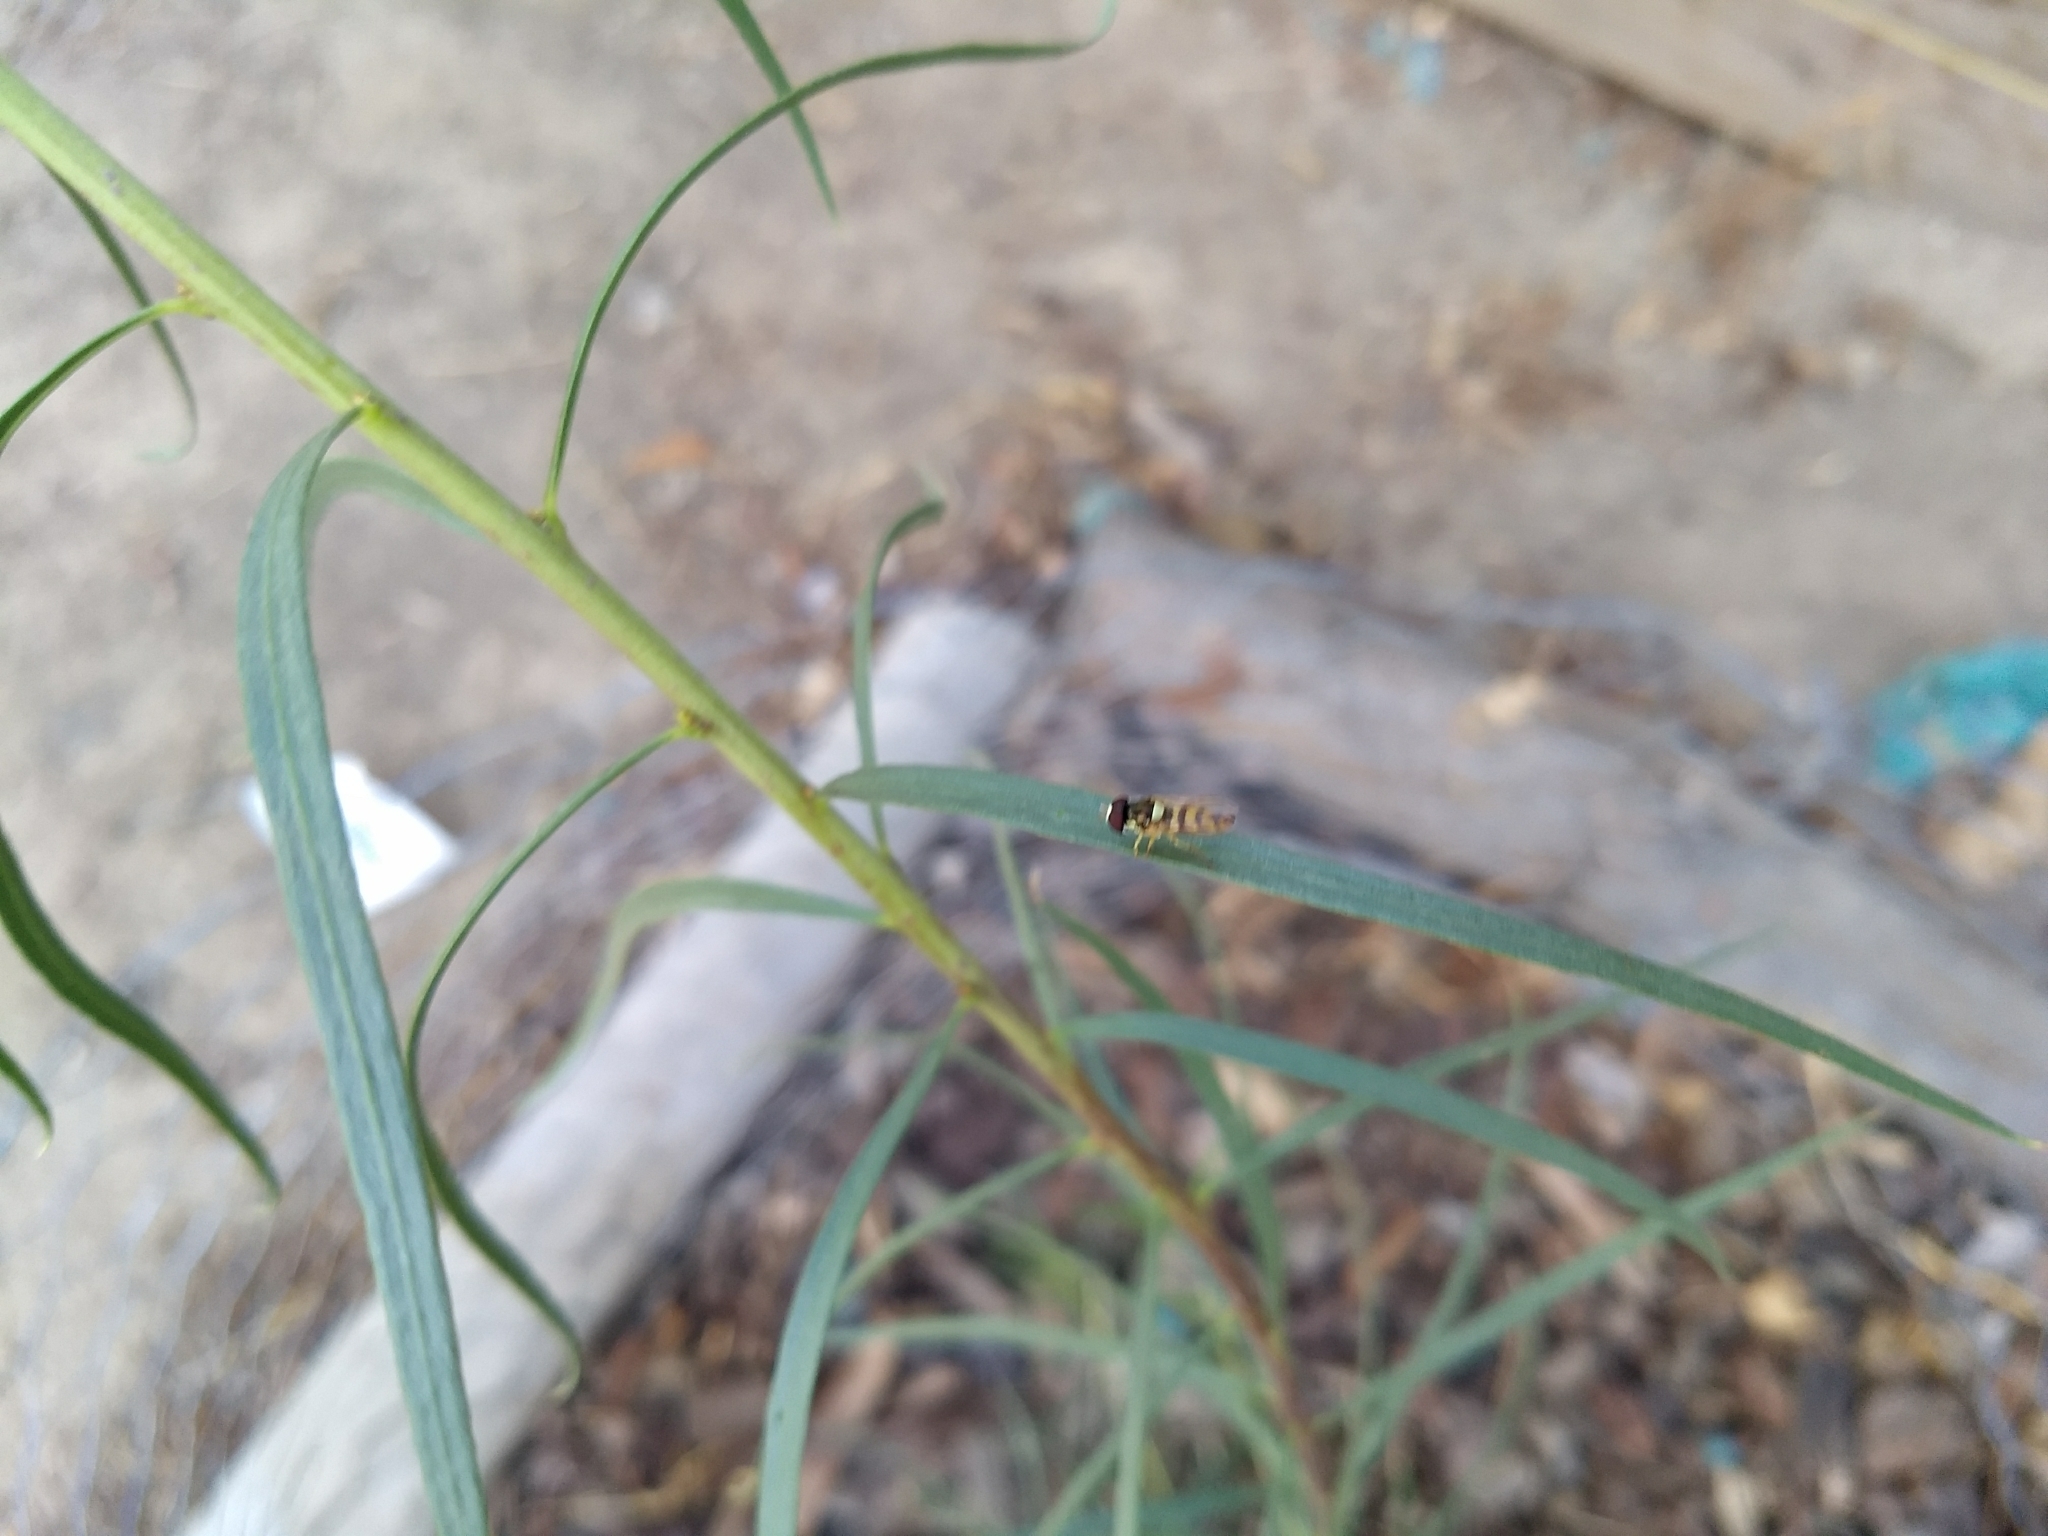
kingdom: Animalia
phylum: Arthropoda
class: Insecta
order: Diptera
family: Syrphidae
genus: Allograpta
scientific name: Allograpta exotica
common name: Syrphid fly
